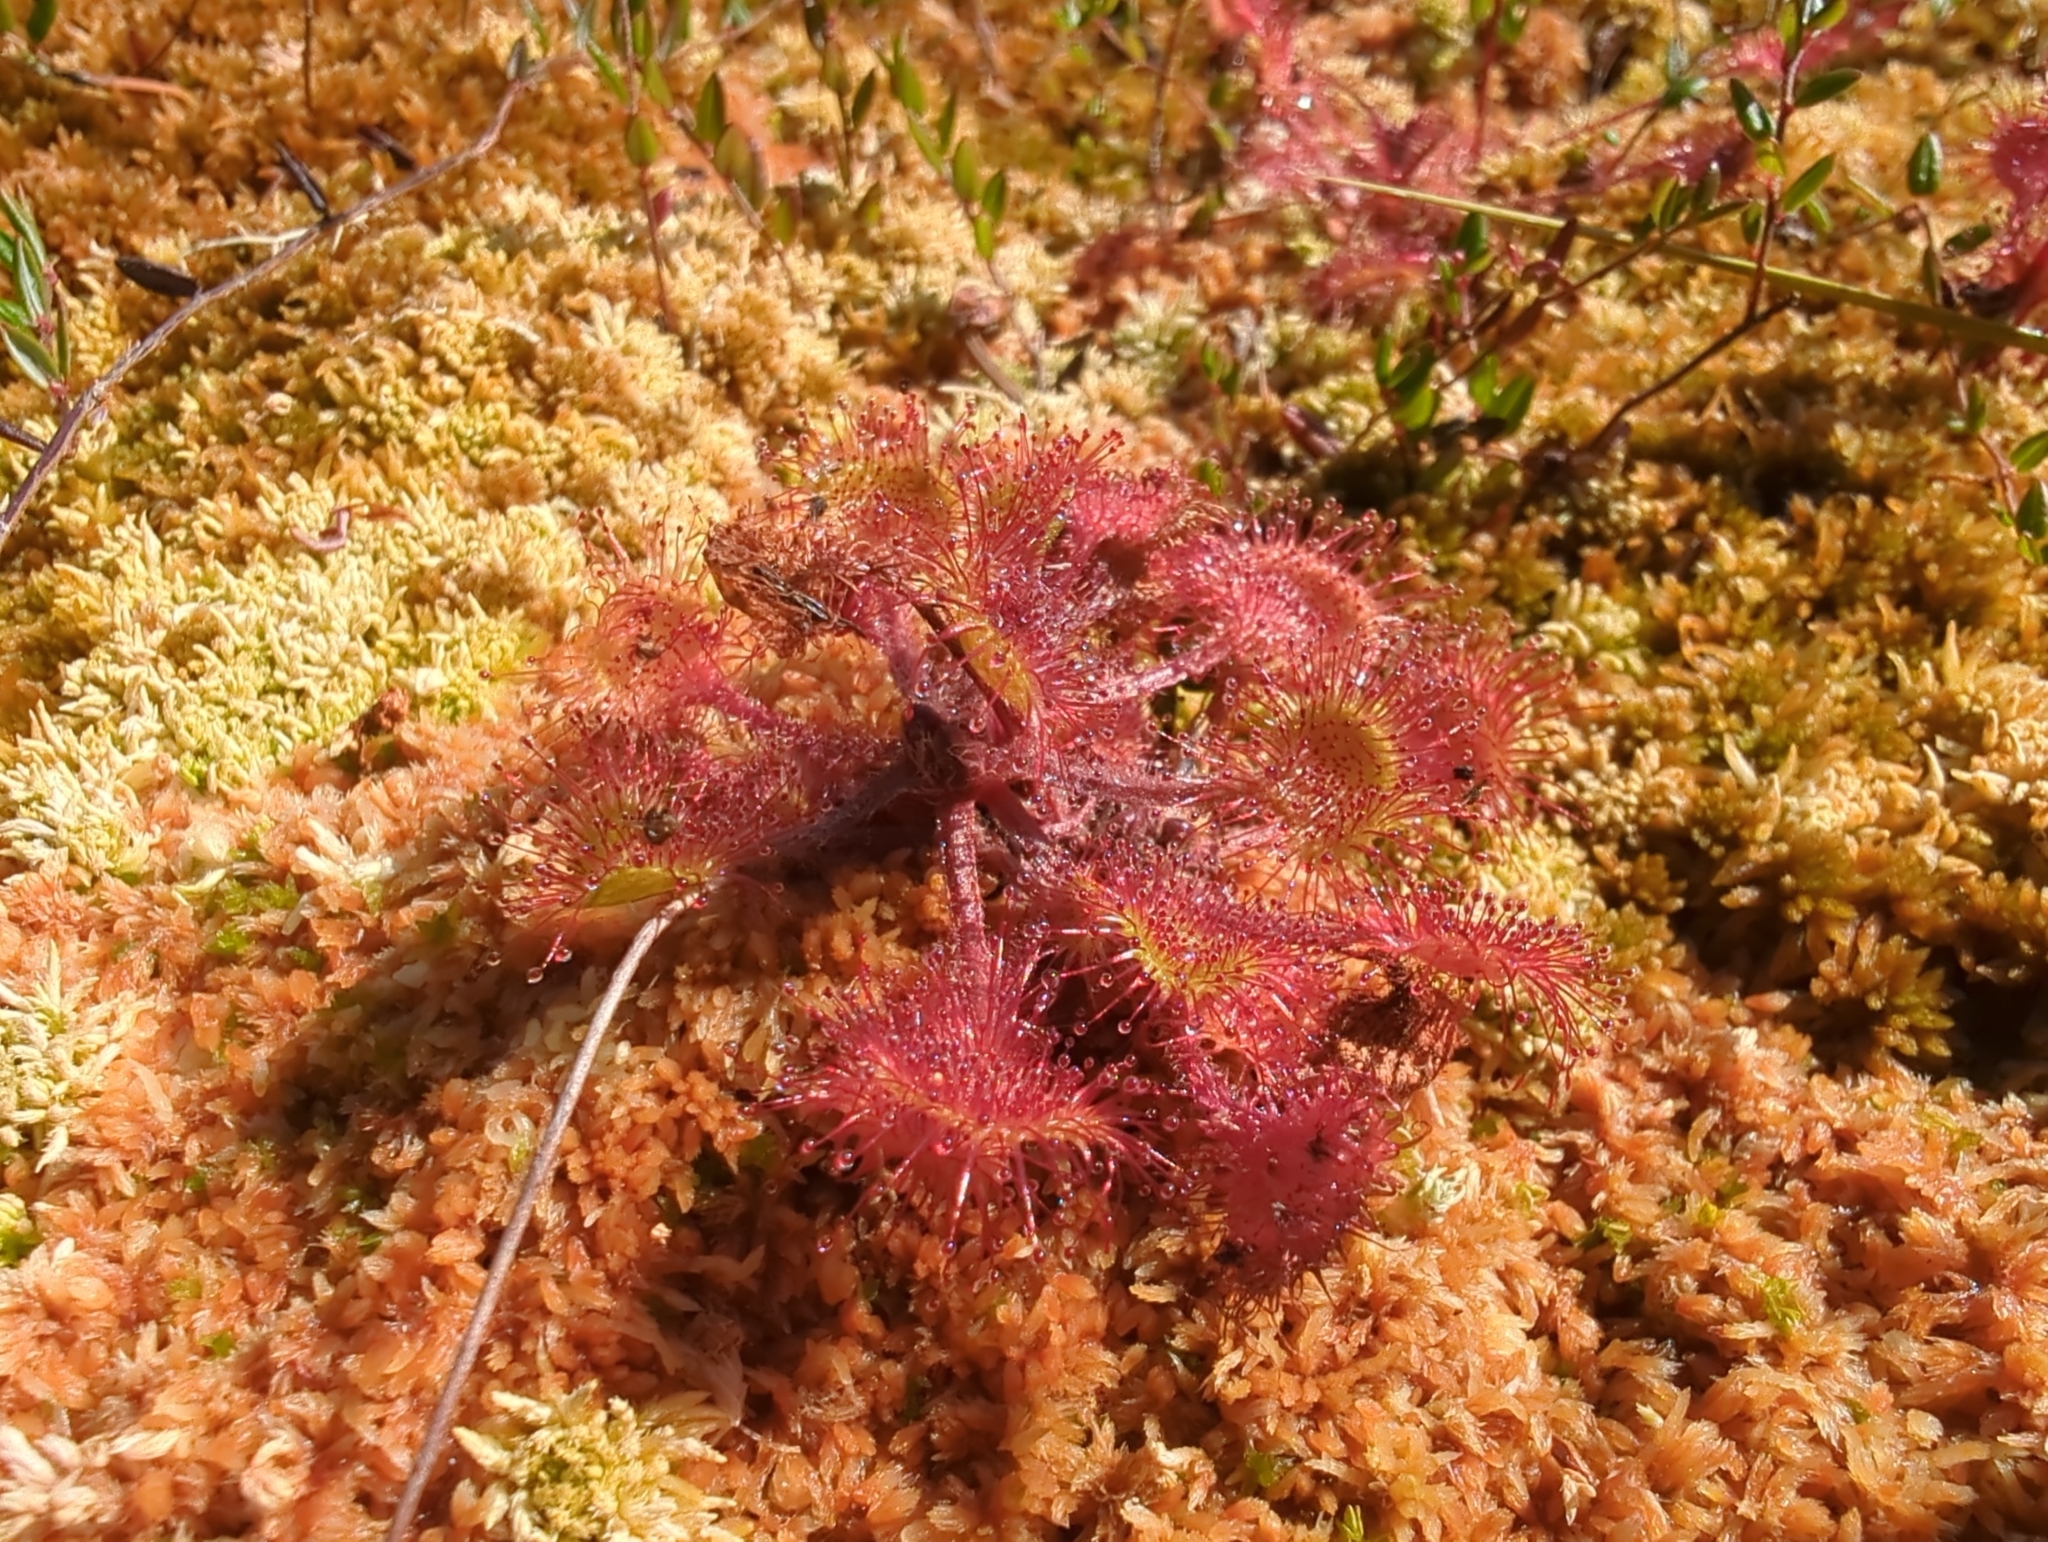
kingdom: Plantae
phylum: Tracheophyta
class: Magnoliopsida
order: Caryophyllales
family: Droseraceae
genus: Drosera
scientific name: Drosera rotundifolia
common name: Round-leaved sundew
